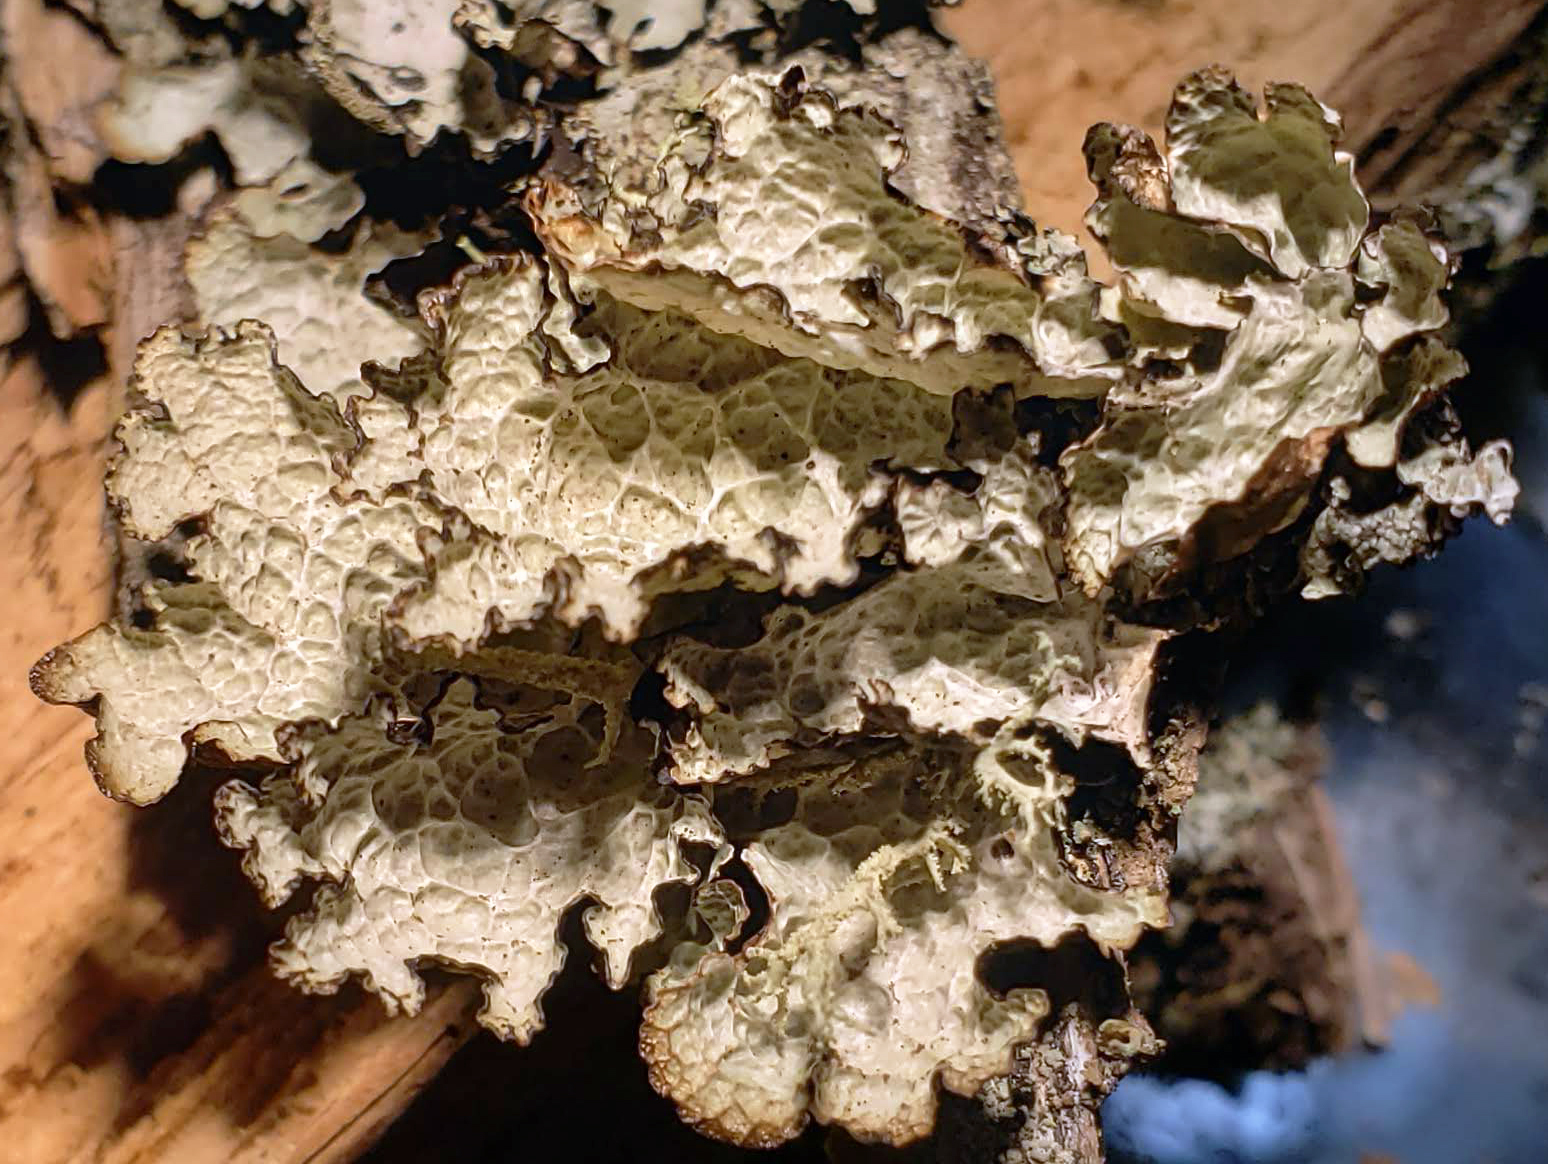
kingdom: Fungi
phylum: Ascomycota
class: Lecanoromycetes
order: Lecanorales
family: Parmeliaceae
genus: Platismatia
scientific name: Platismatia tuckermanii
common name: Crumpled rag lichen
